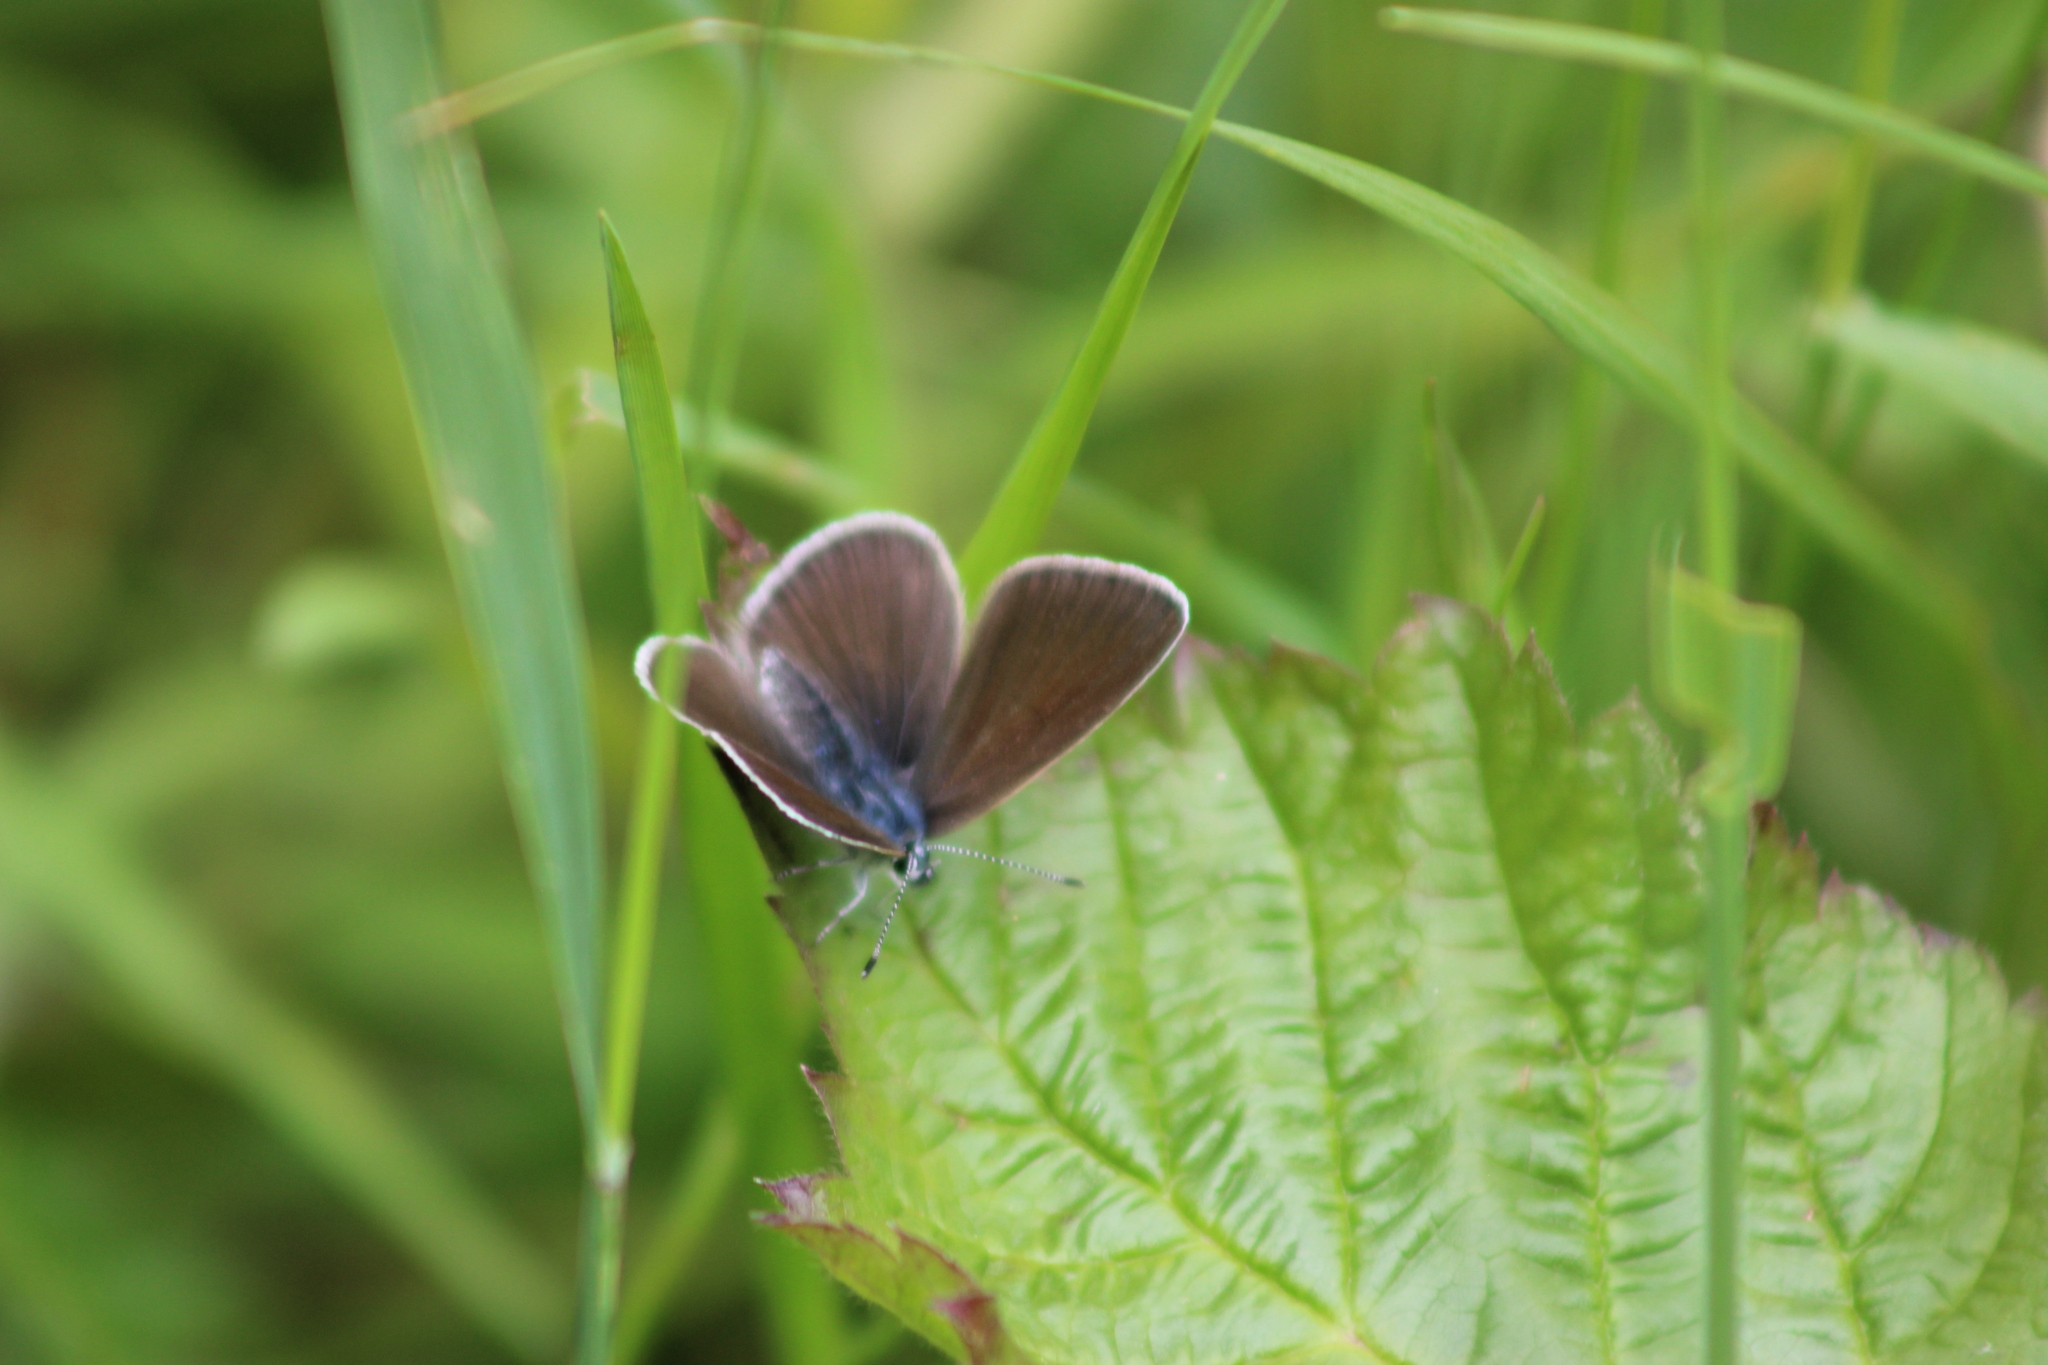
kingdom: Animalia
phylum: Arthropoda
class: Insecta
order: Lepidoptera
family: Lycaenidae
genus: Cyaniris
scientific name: Cyaniris semiargus
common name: Mazarine blue
